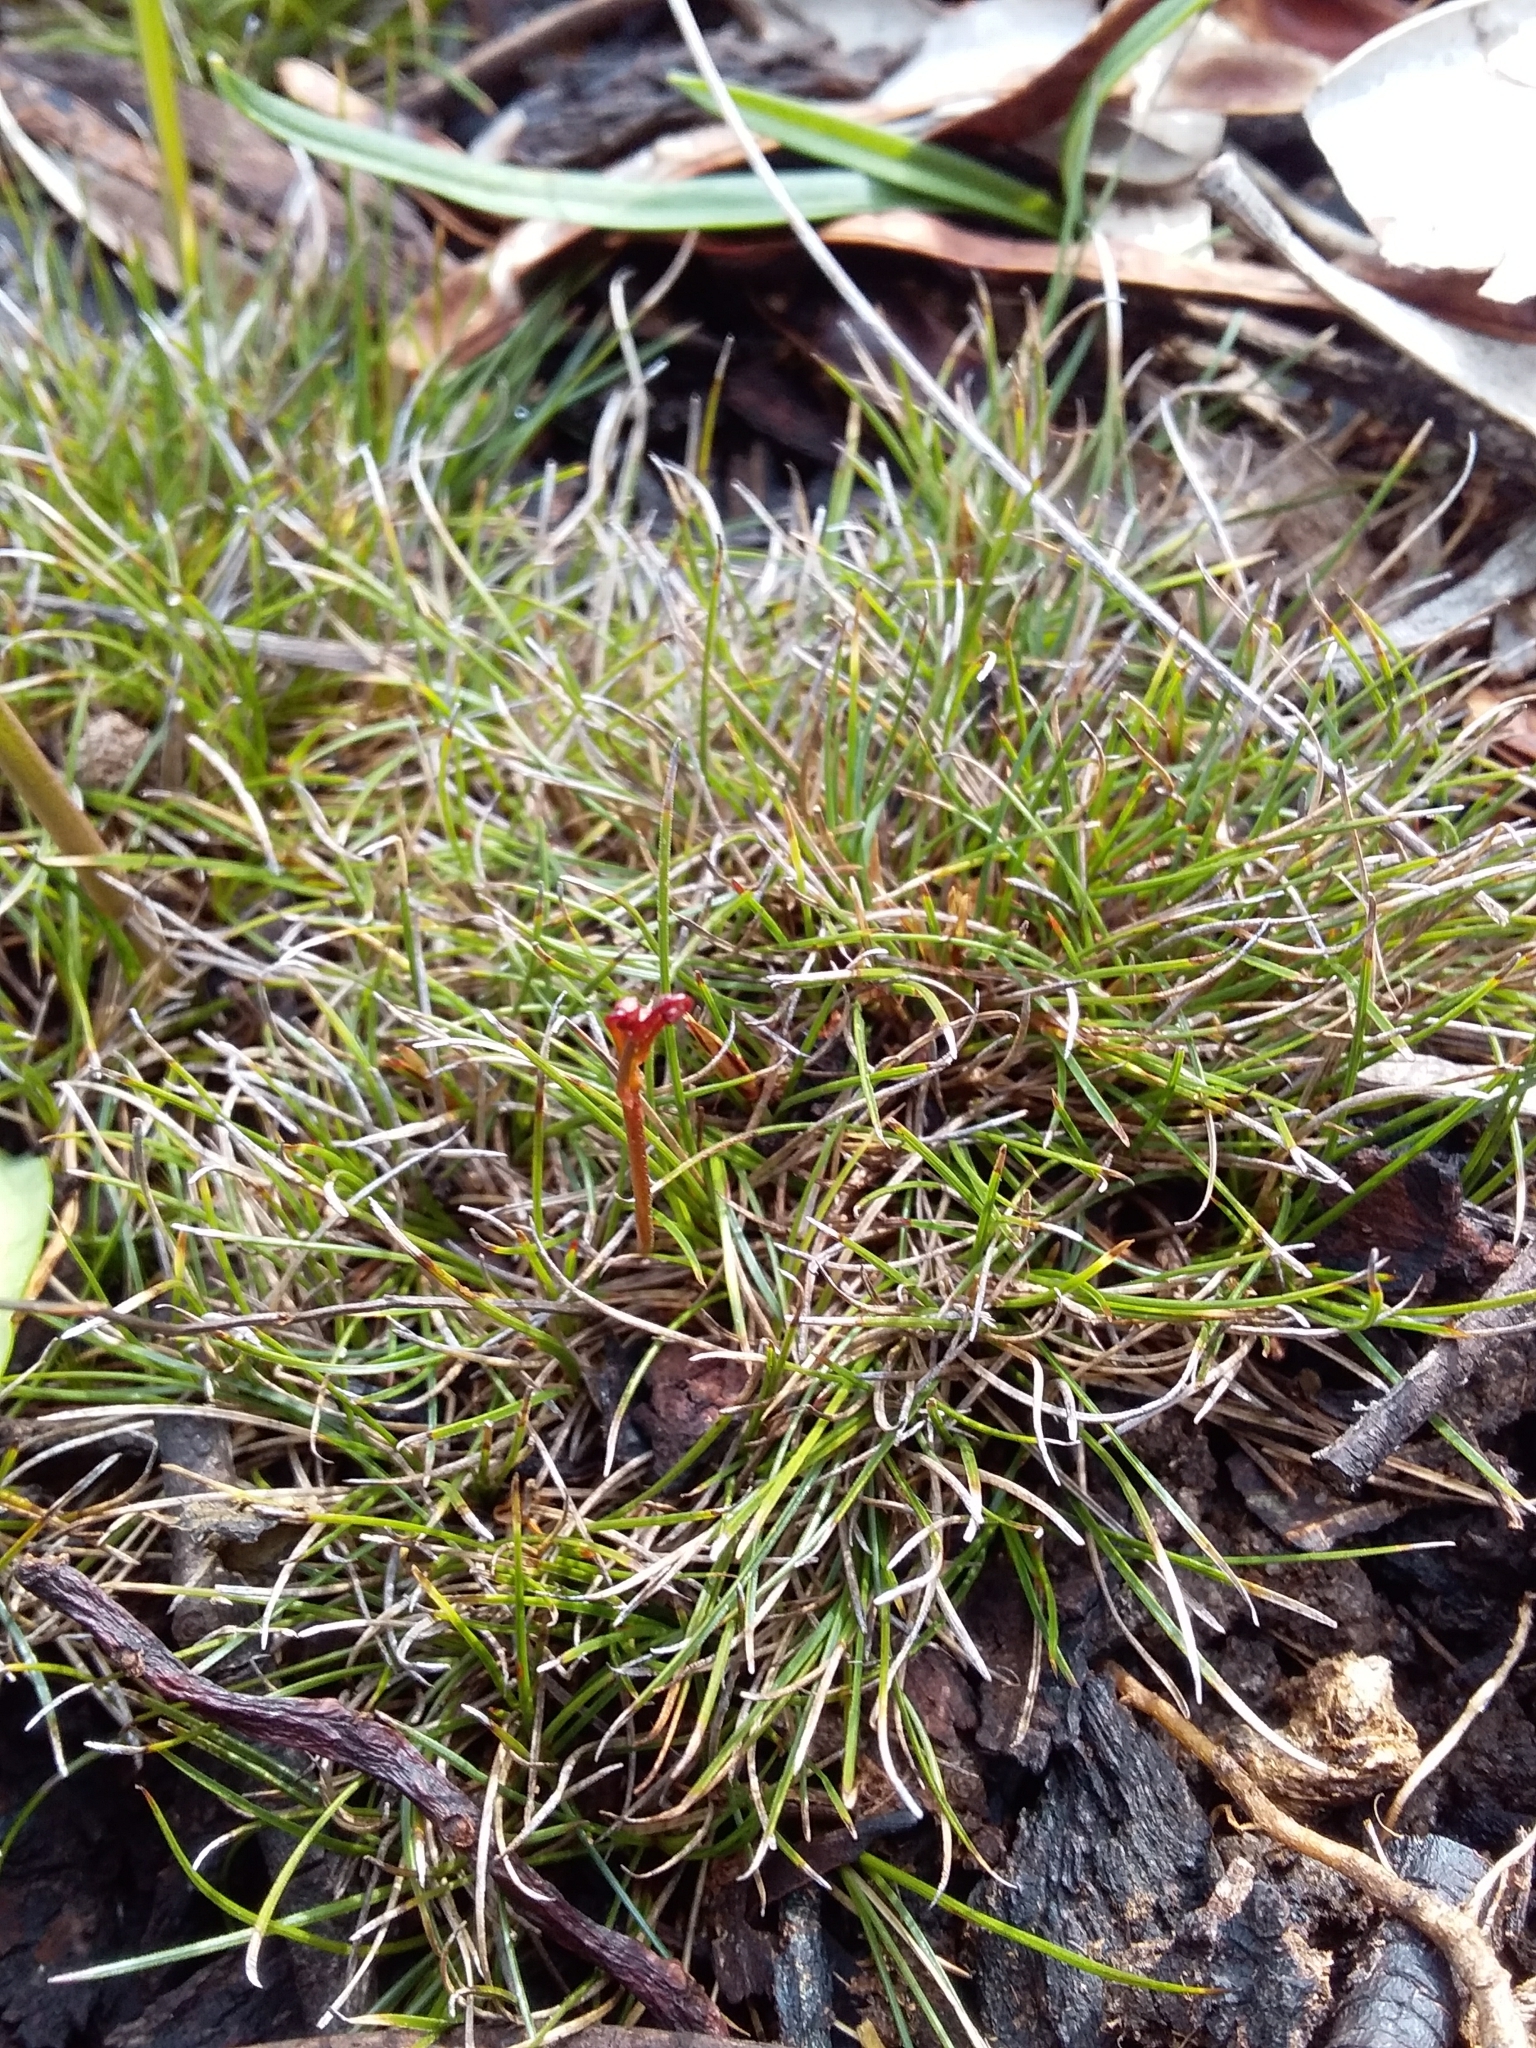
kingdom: Plantae
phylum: Tracheophyta
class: Liliopsida
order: Poales
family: Cyperaceae
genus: Schoenus
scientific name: Schoenus breviculmis
